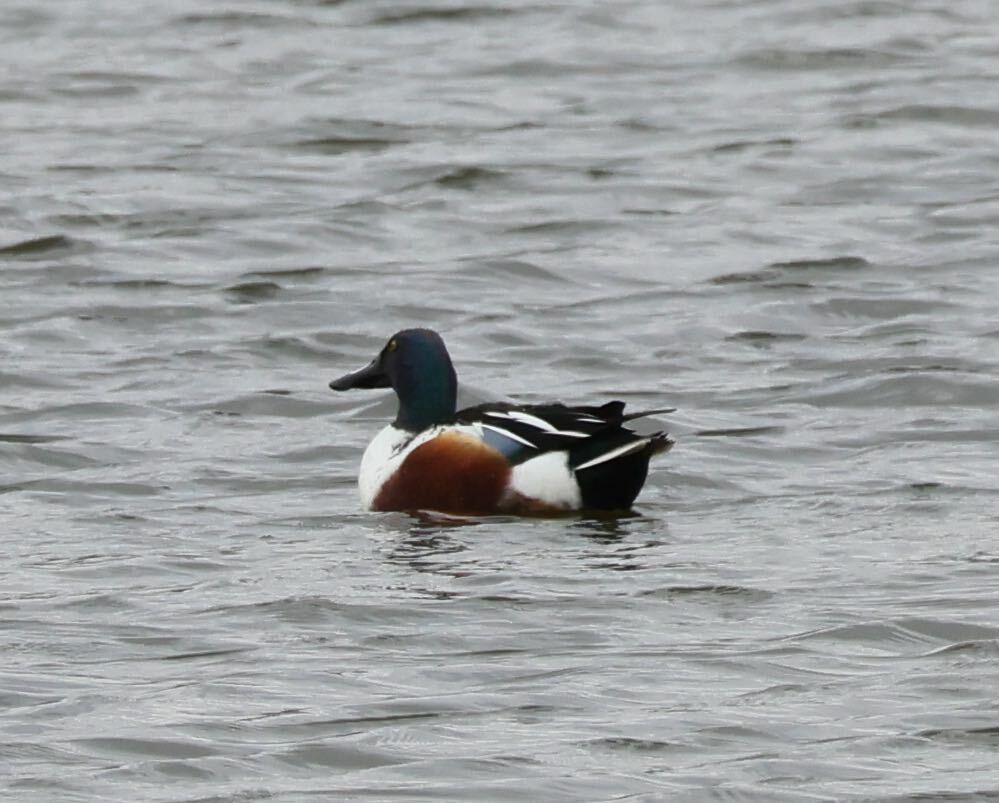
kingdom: Animalia
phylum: Chordata
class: Aves
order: Anseriformes
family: Anatidae
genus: Spatula
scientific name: Spatula clypeata
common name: Northern shoveler
